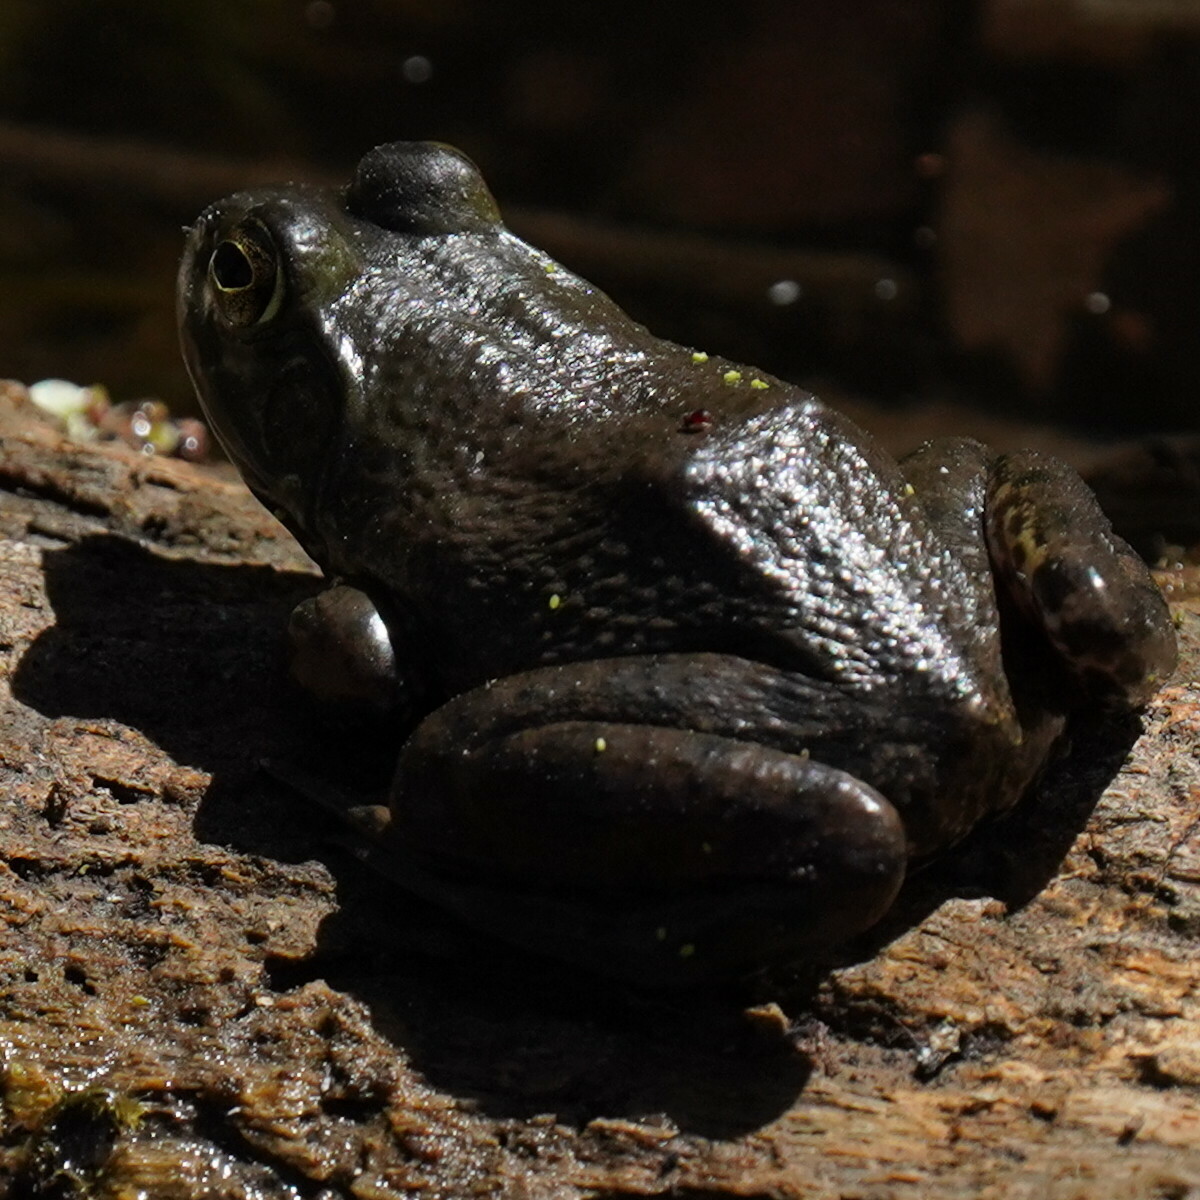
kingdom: Animalia
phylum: Chordata
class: Amphibia
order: Anura
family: Ranidae
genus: Lithobates
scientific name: Lithobates catesbeianus
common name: American bullfrog
